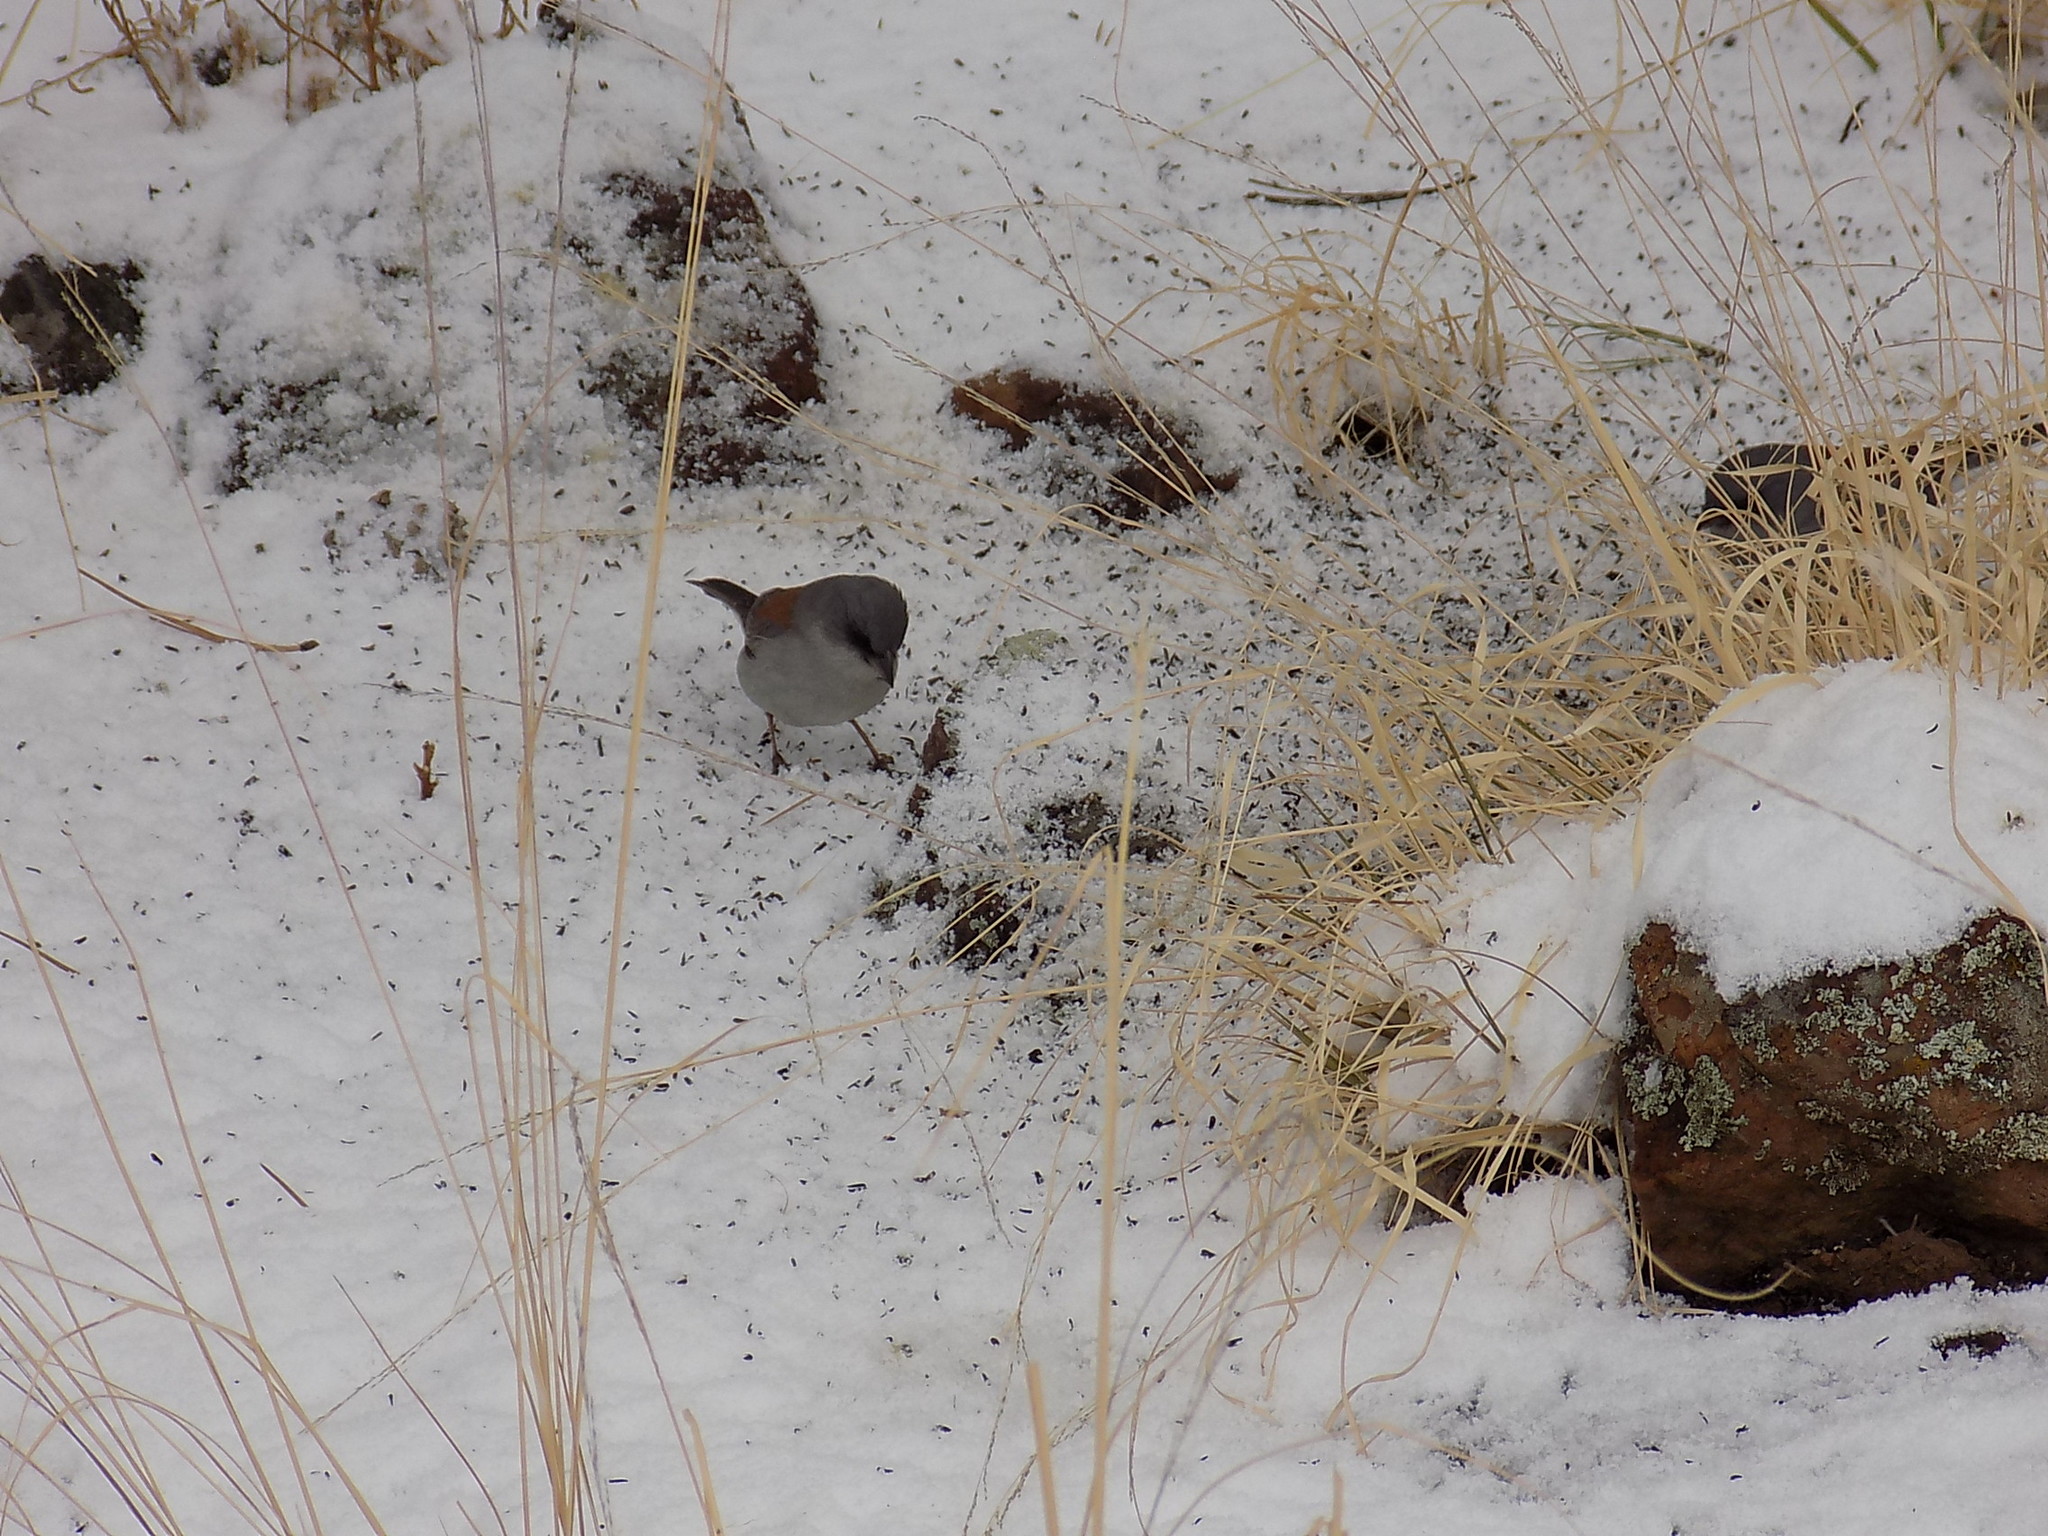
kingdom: Animalia
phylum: Chordata
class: Aves
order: Passeriformes
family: Passerellidae
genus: Junco
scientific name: Junco hyemalis
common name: Dark-eyed junco
